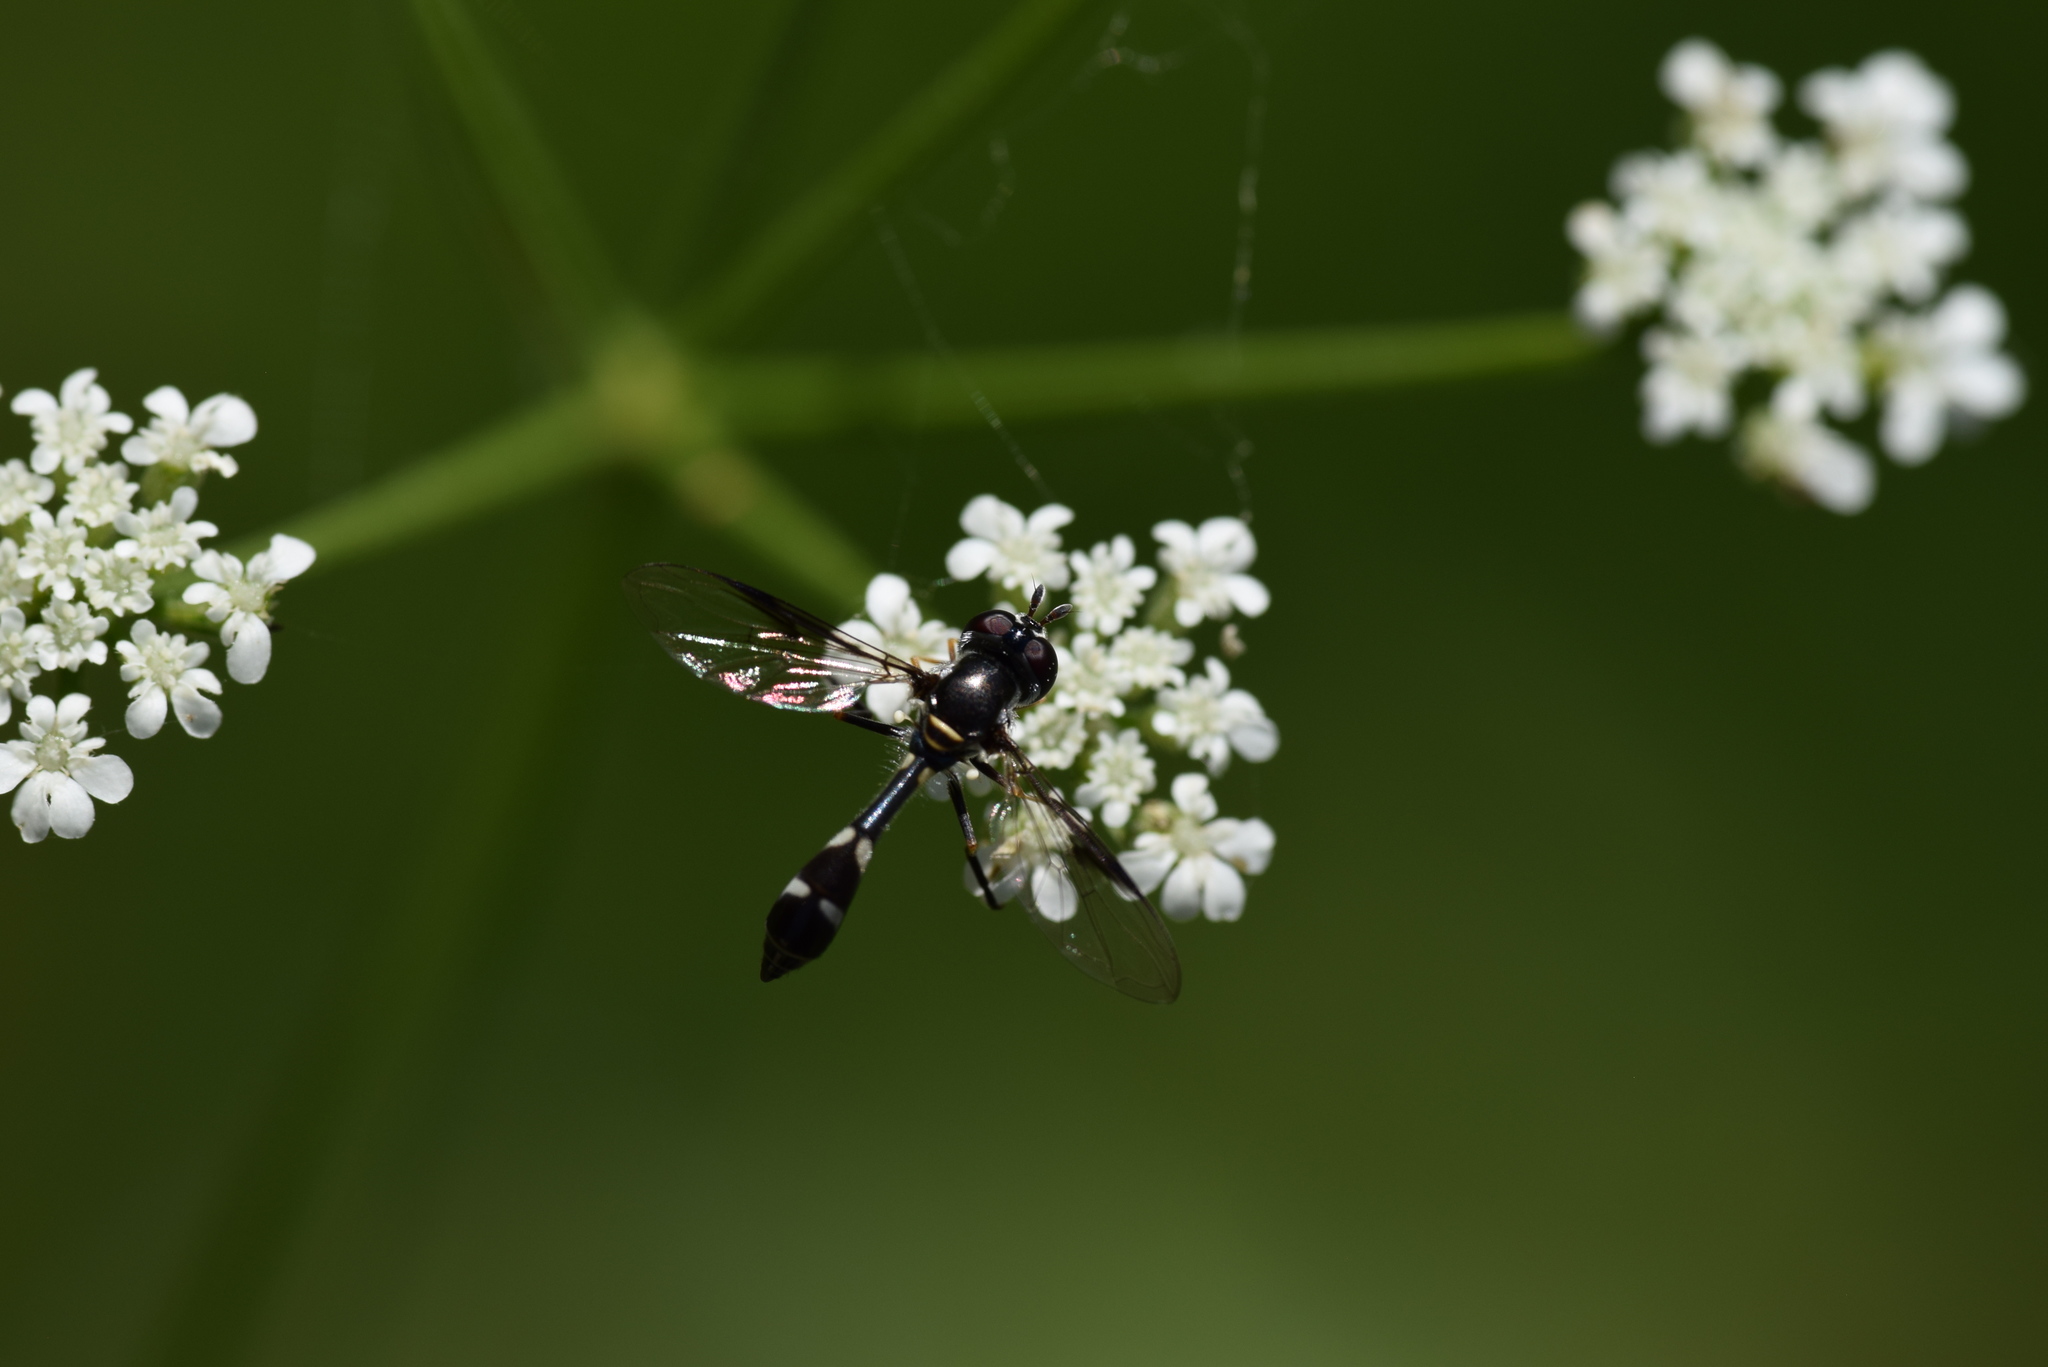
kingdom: Animalia
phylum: Arthropoda
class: Insecta
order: Diptera
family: Syrphidae
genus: Dioprosopa
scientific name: Dioprosopa clavatus
